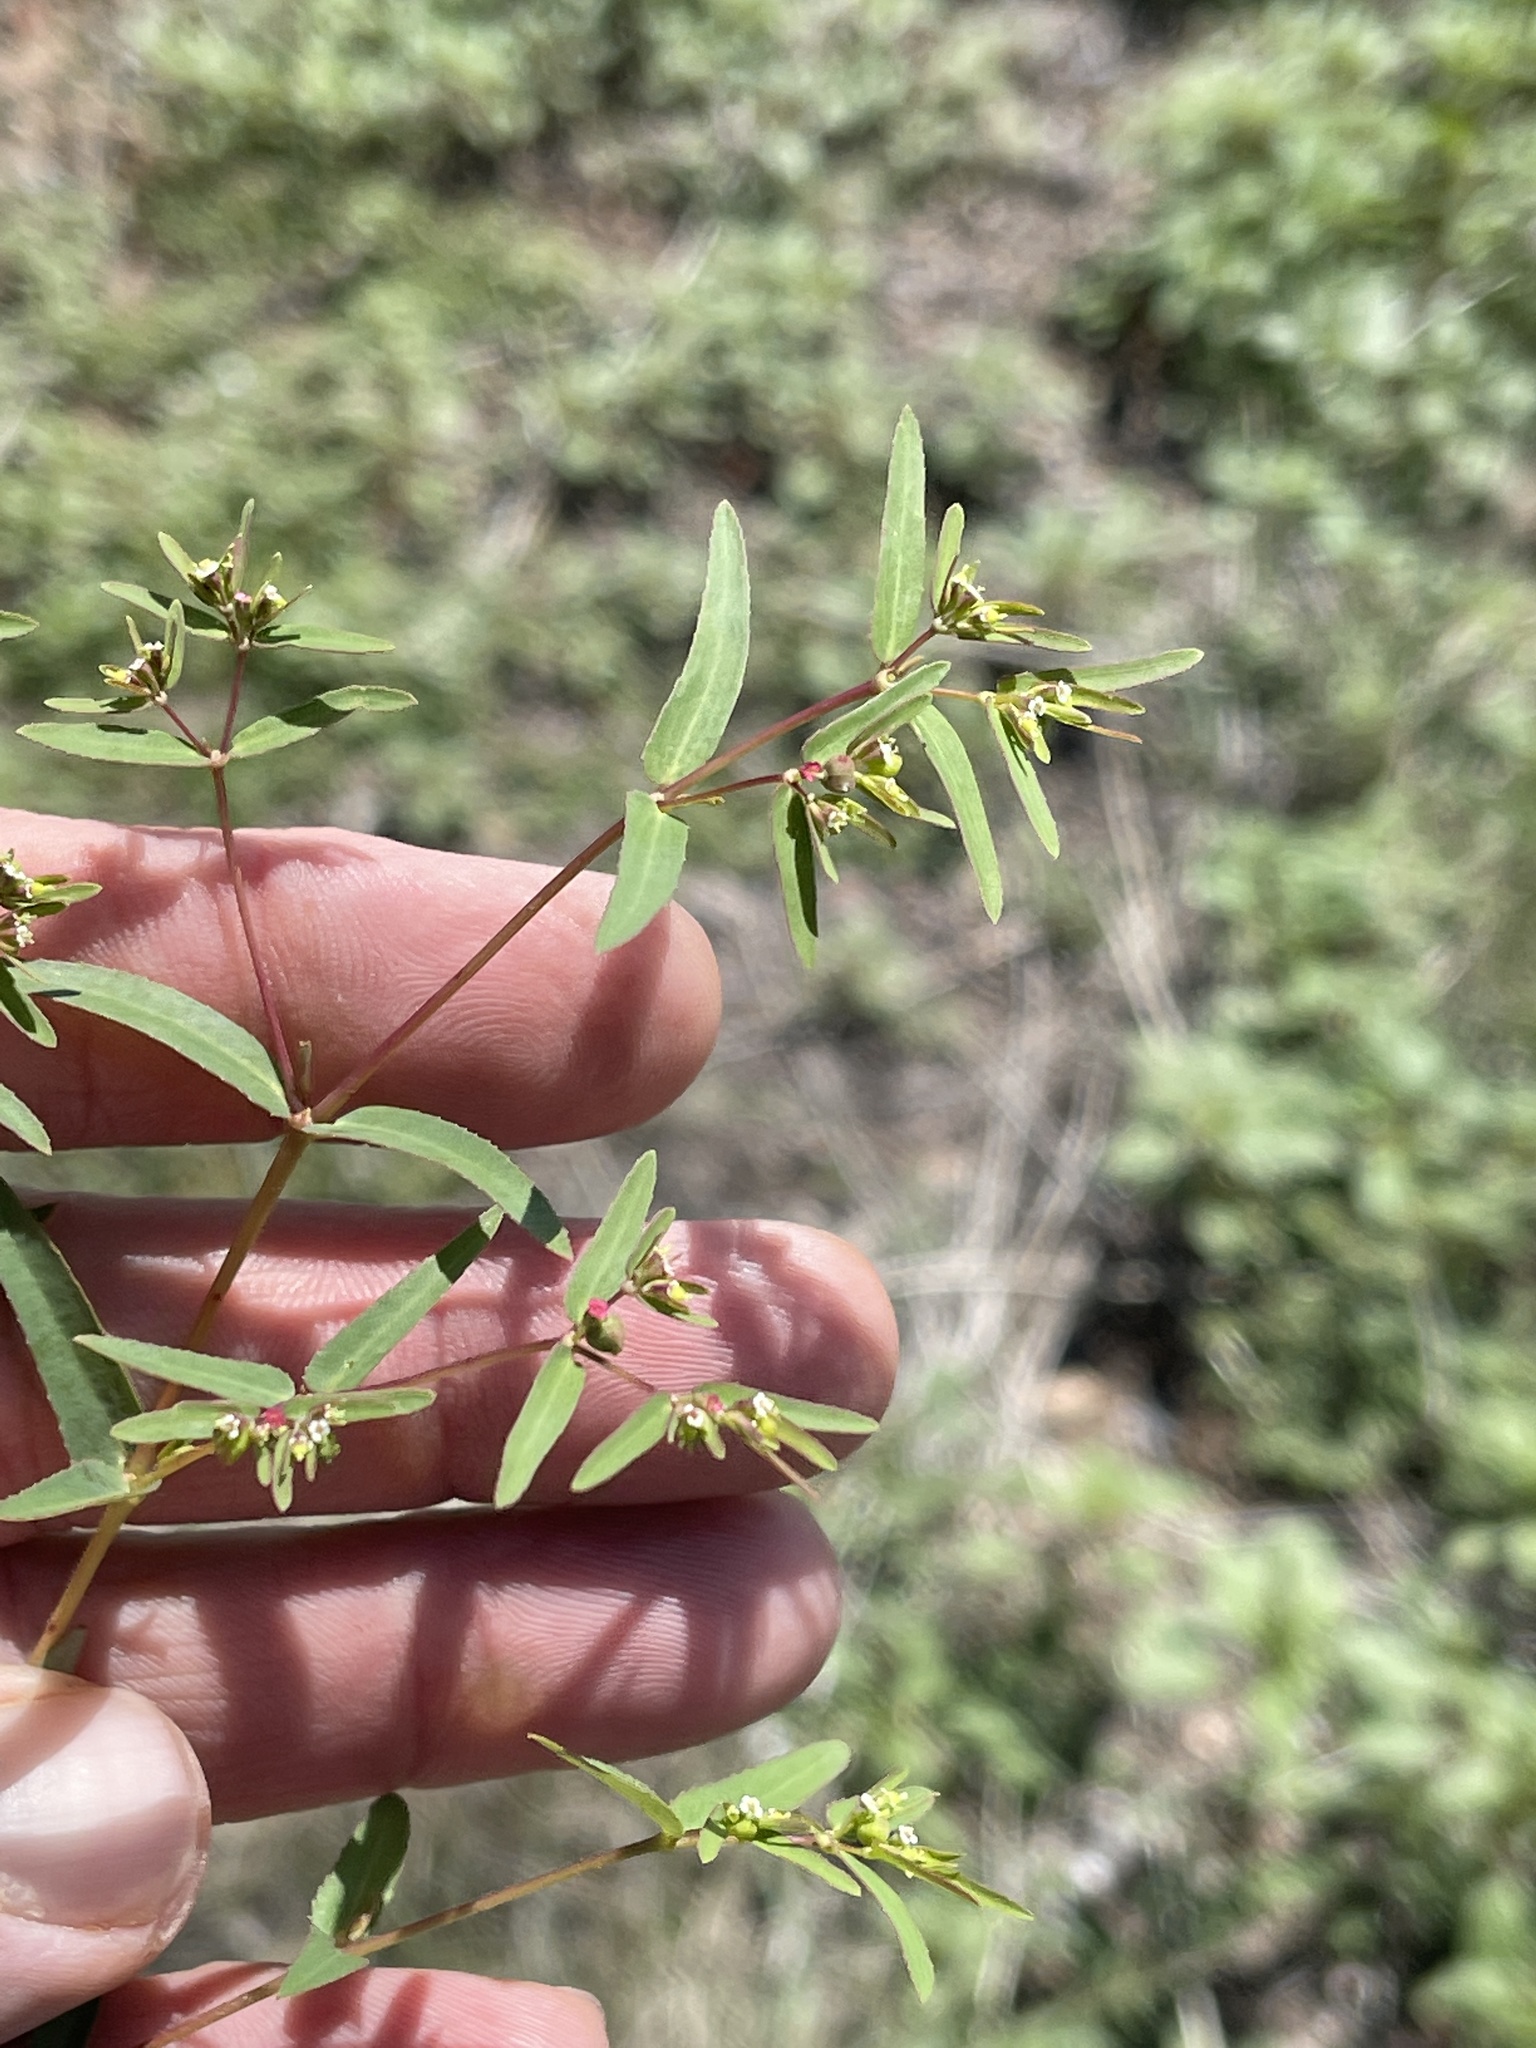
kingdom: Plantae
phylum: Tracheophyta
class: Magnoliopsida
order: Malpighiales
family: Euphorbiaceae
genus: Euphorbia
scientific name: Euphorbia hyssopifolia
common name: Hyssopleaf sandmat
